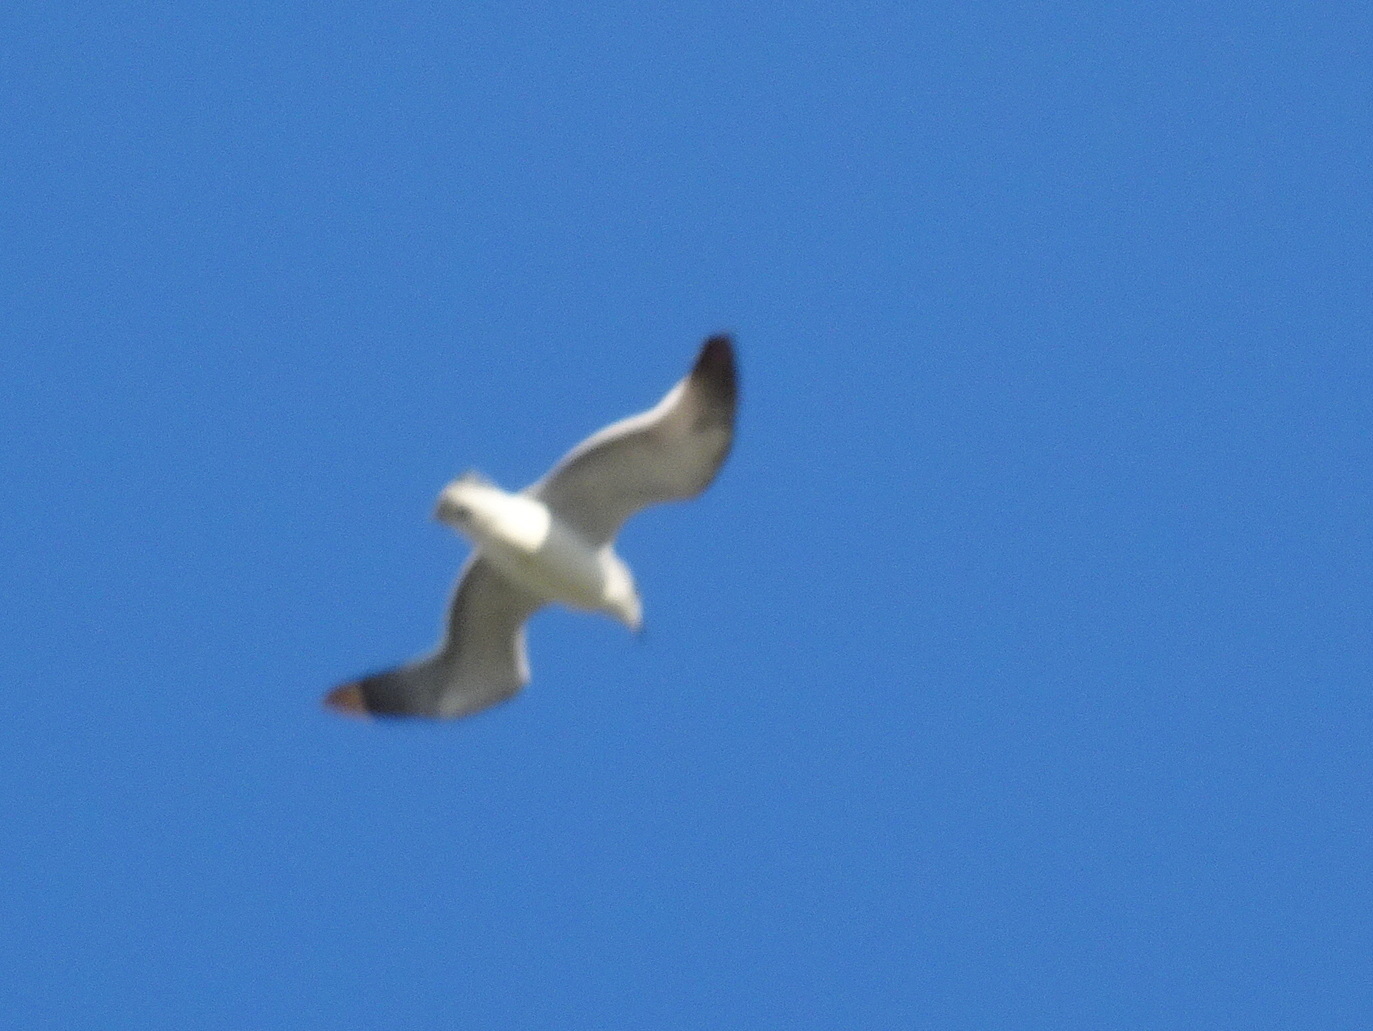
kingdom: Animalia
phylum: Chordata
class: Aves
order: Charadriiformes
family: Laridae
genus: Leucophaeus
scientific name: Leucophaeus pipixcan
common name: Franklin's gull
